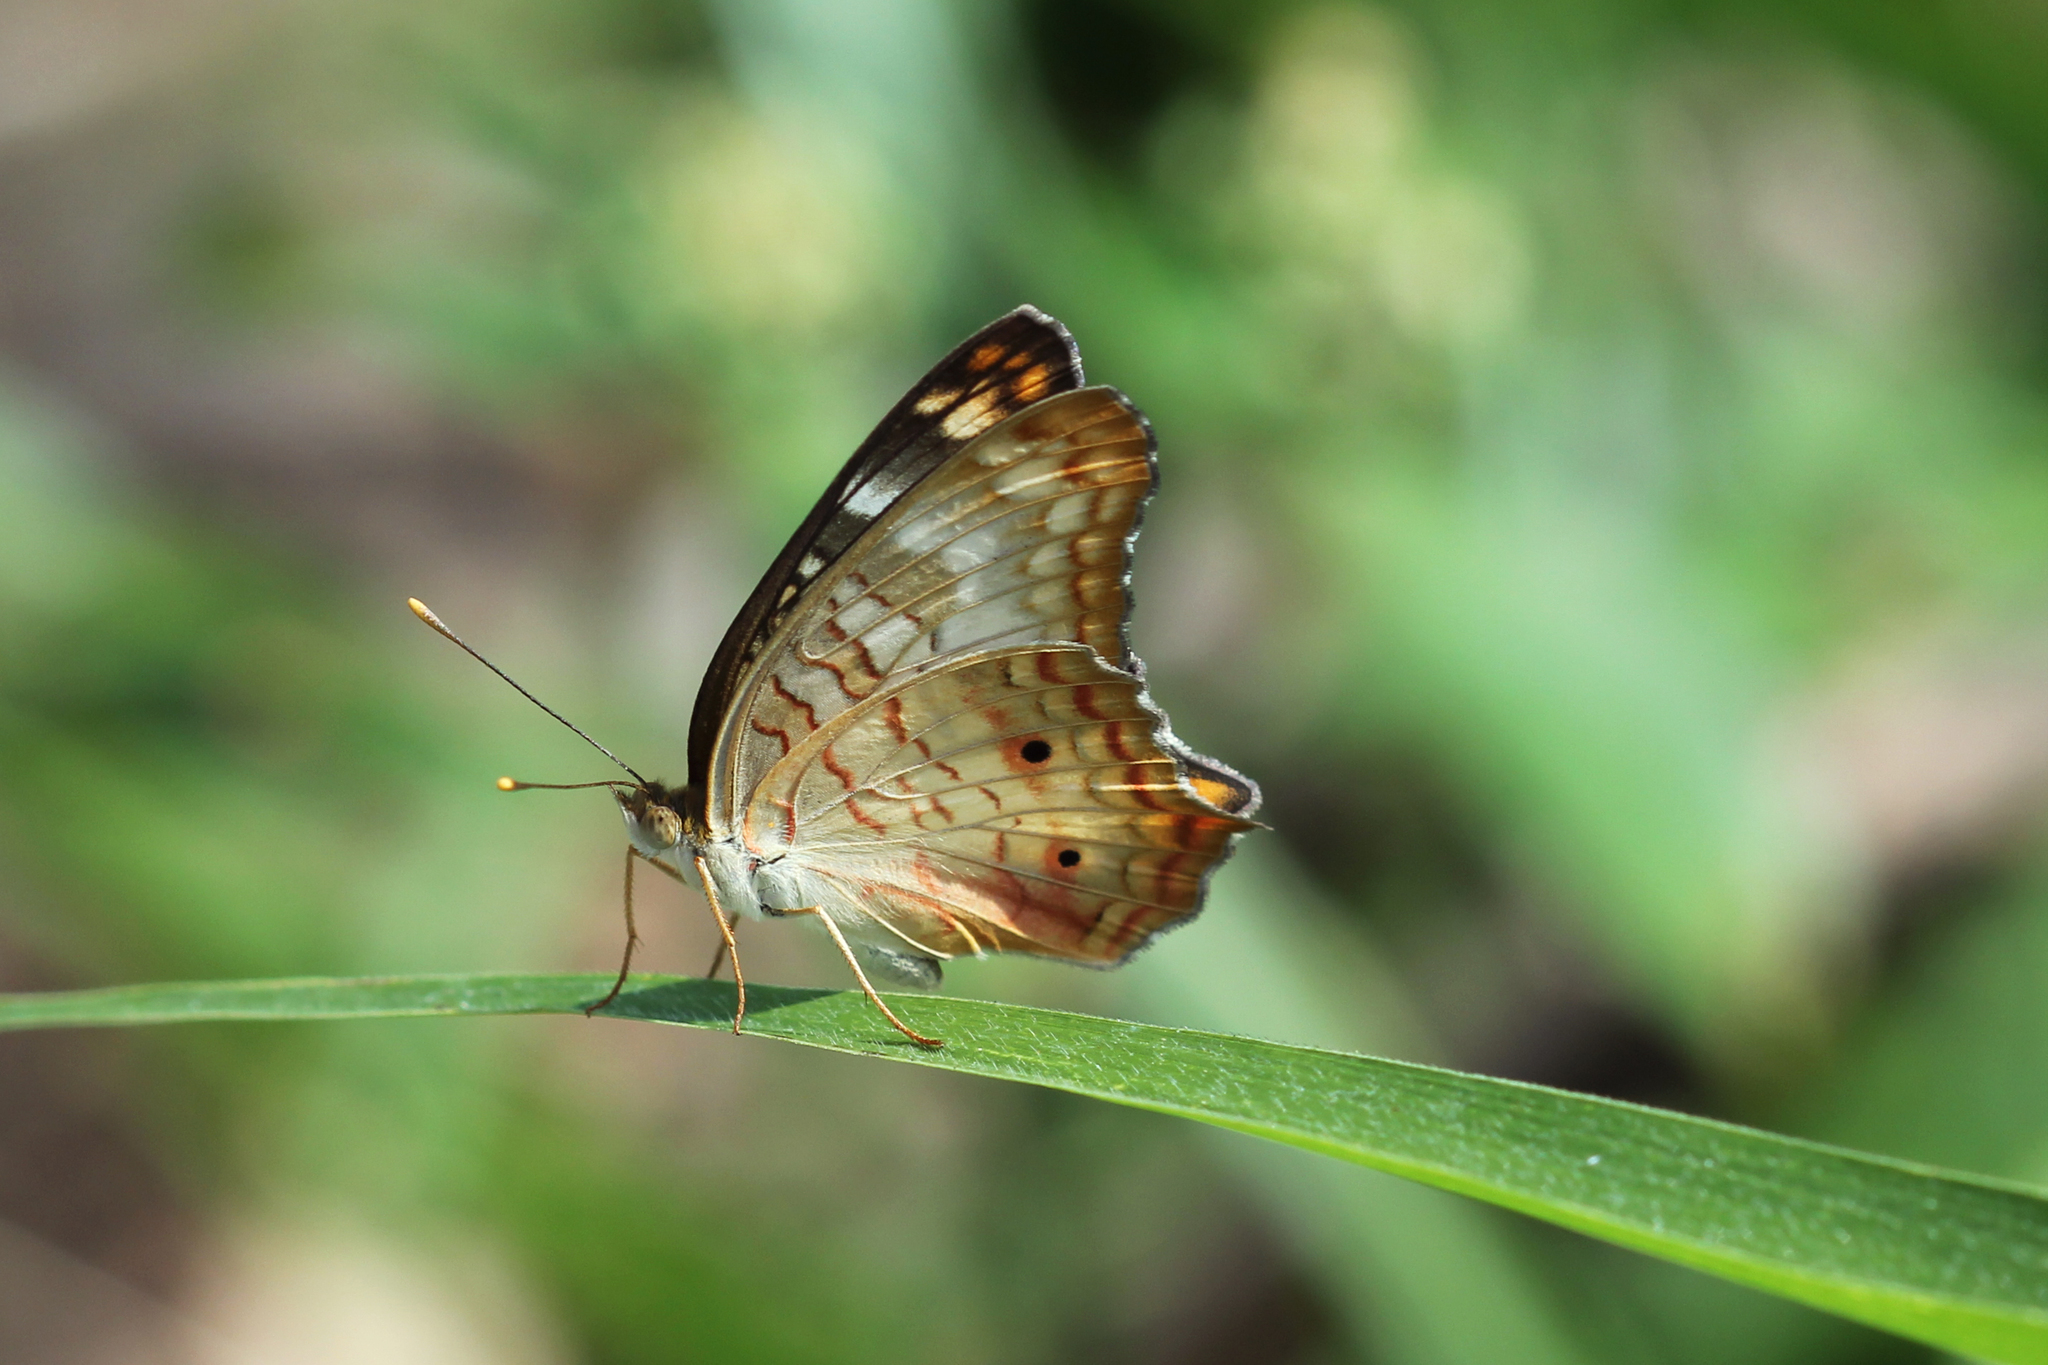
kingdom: Animalia
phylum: Arthropoda
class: Insecta
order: Lepidoptera
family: Nymphalidae
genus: Anartia
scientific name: Anartia jatrophae
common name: White peacock
